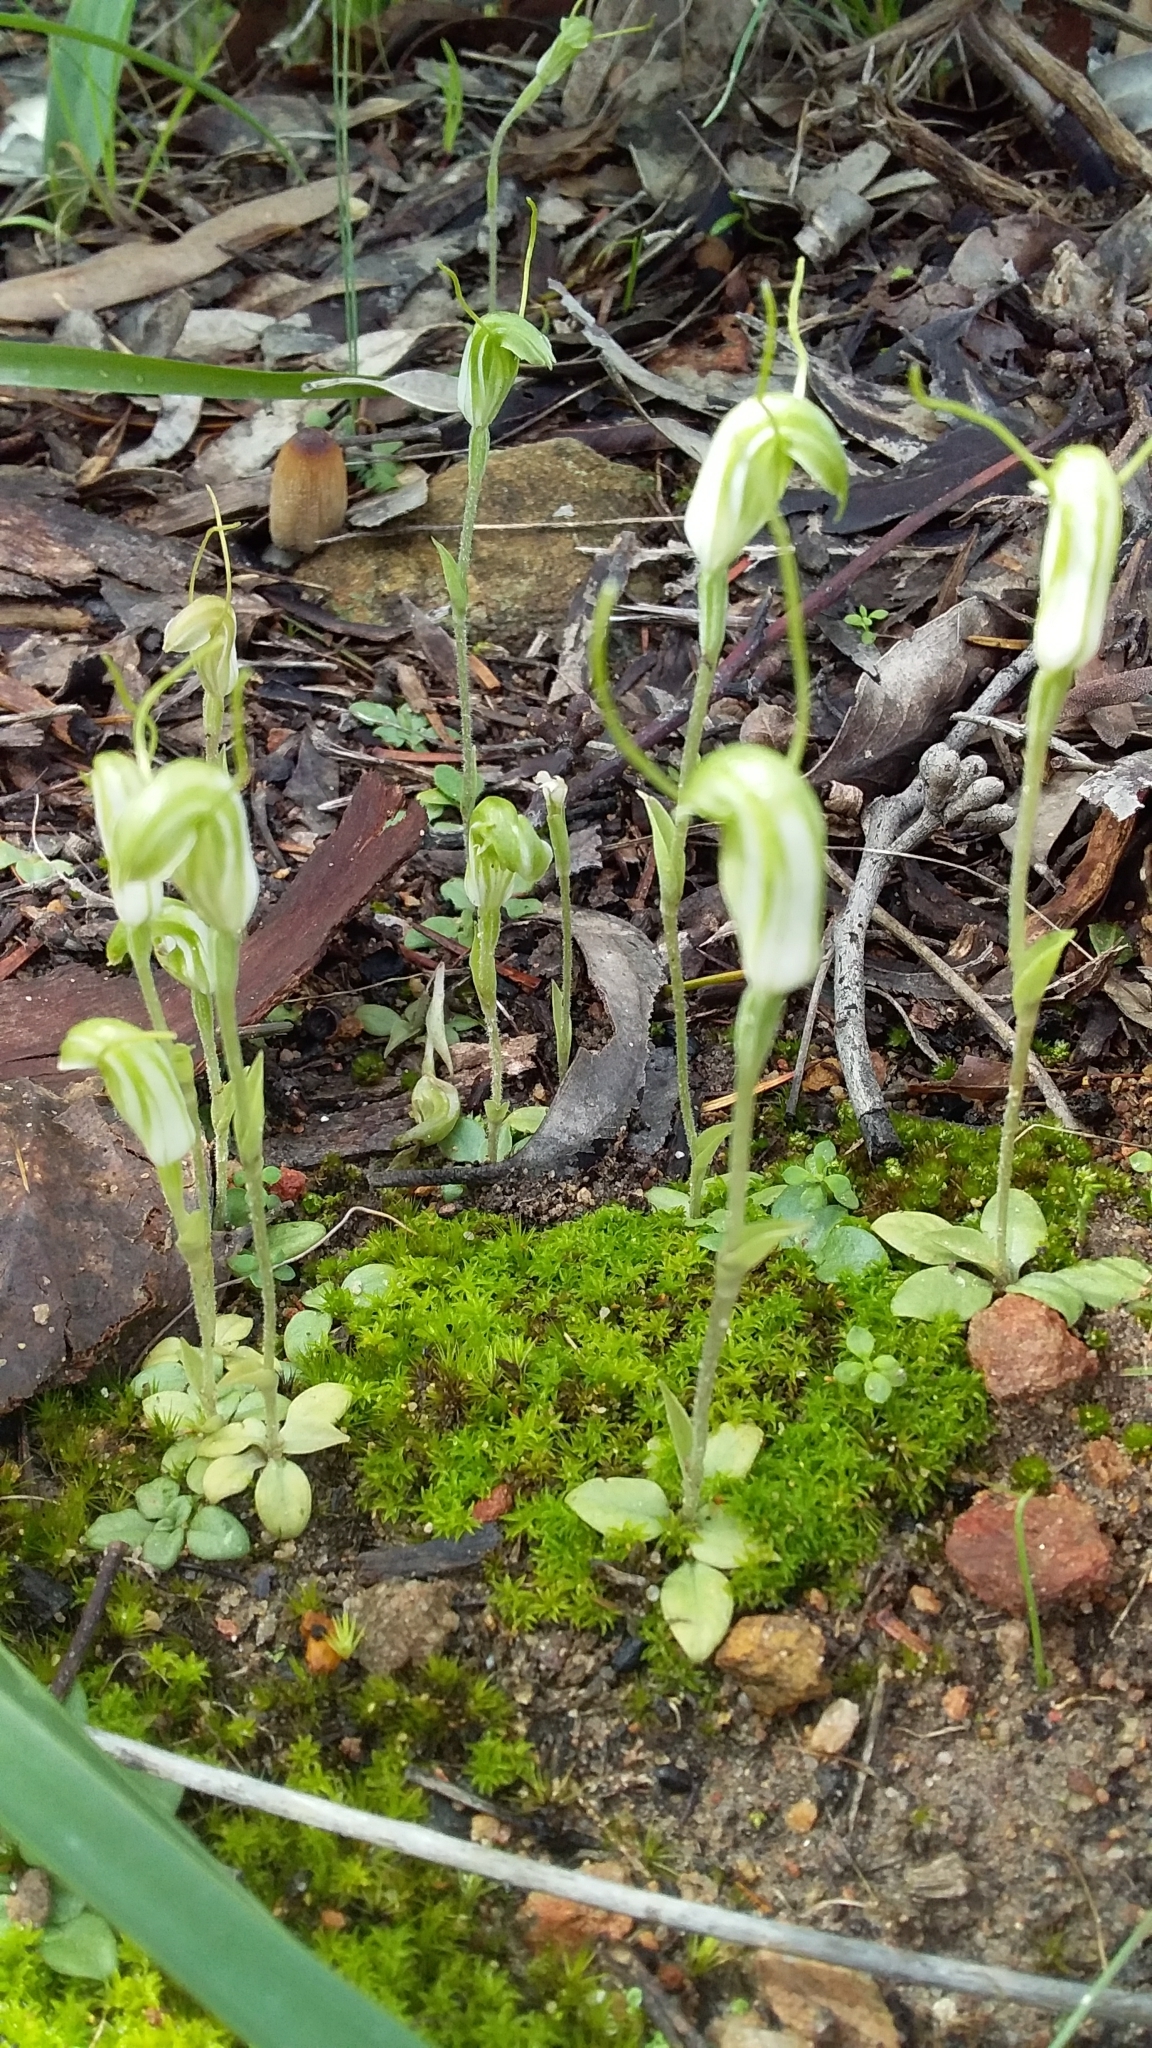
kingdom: Plantae
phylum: Tracheophyta
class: Liliopsida
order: Asparagales
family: Orchidaceae
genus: Pterostylis
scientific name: Pterostylis nana
